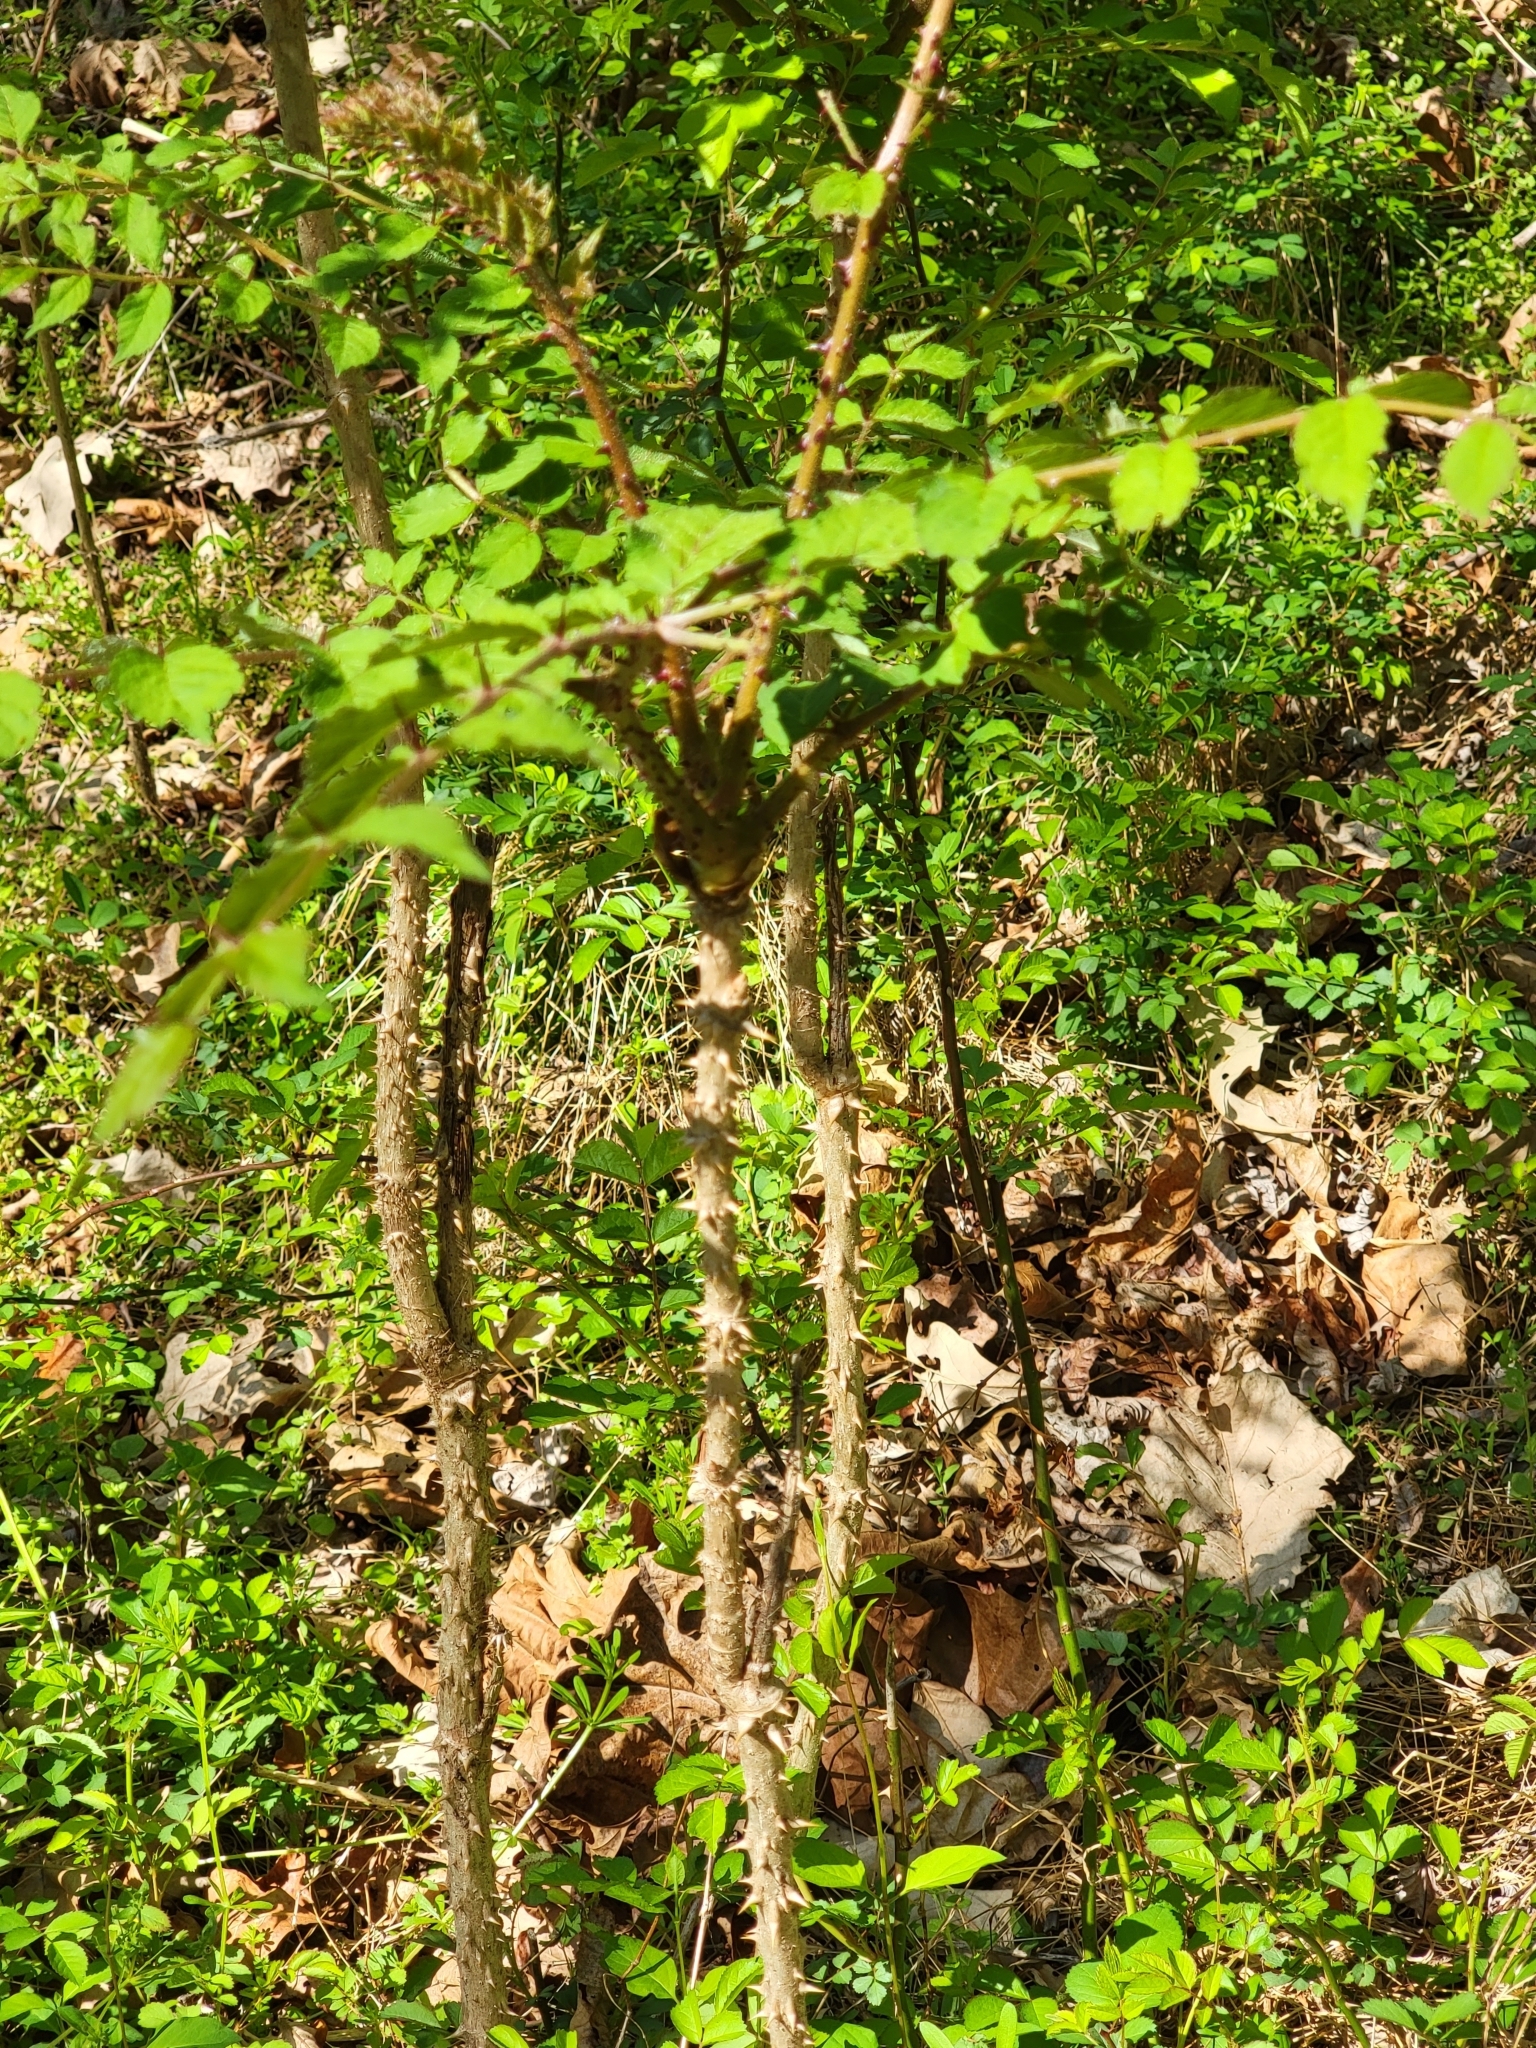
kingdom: Plantae
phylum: Tracheophyta
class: Magnoliopsida
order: Apiales
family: Araliaceae
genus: Aralia
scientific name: Aralia elata
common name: Japanese angelica-tree
